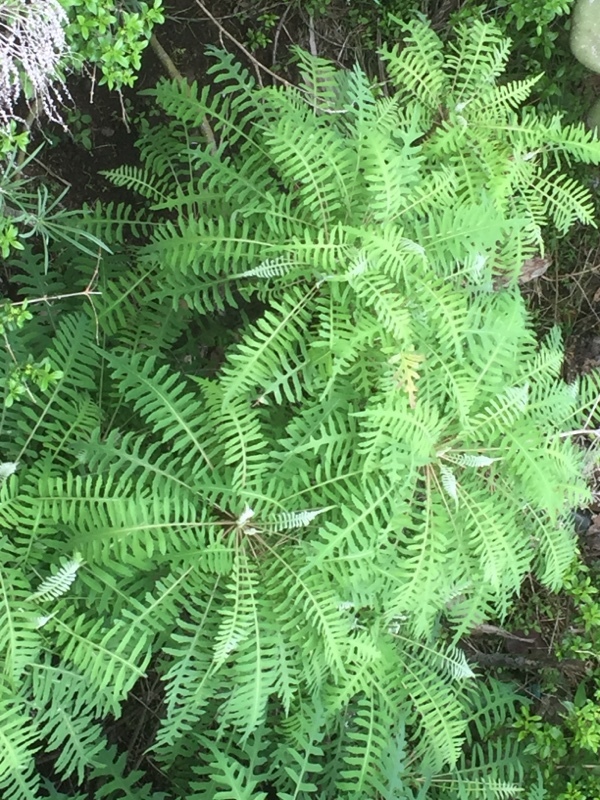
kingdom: Plantae
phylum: Tracheophyta
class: Magnoliopsida
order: Asterales
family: Asteraceae
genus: Sonchus
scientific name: Sonchus palmensis
